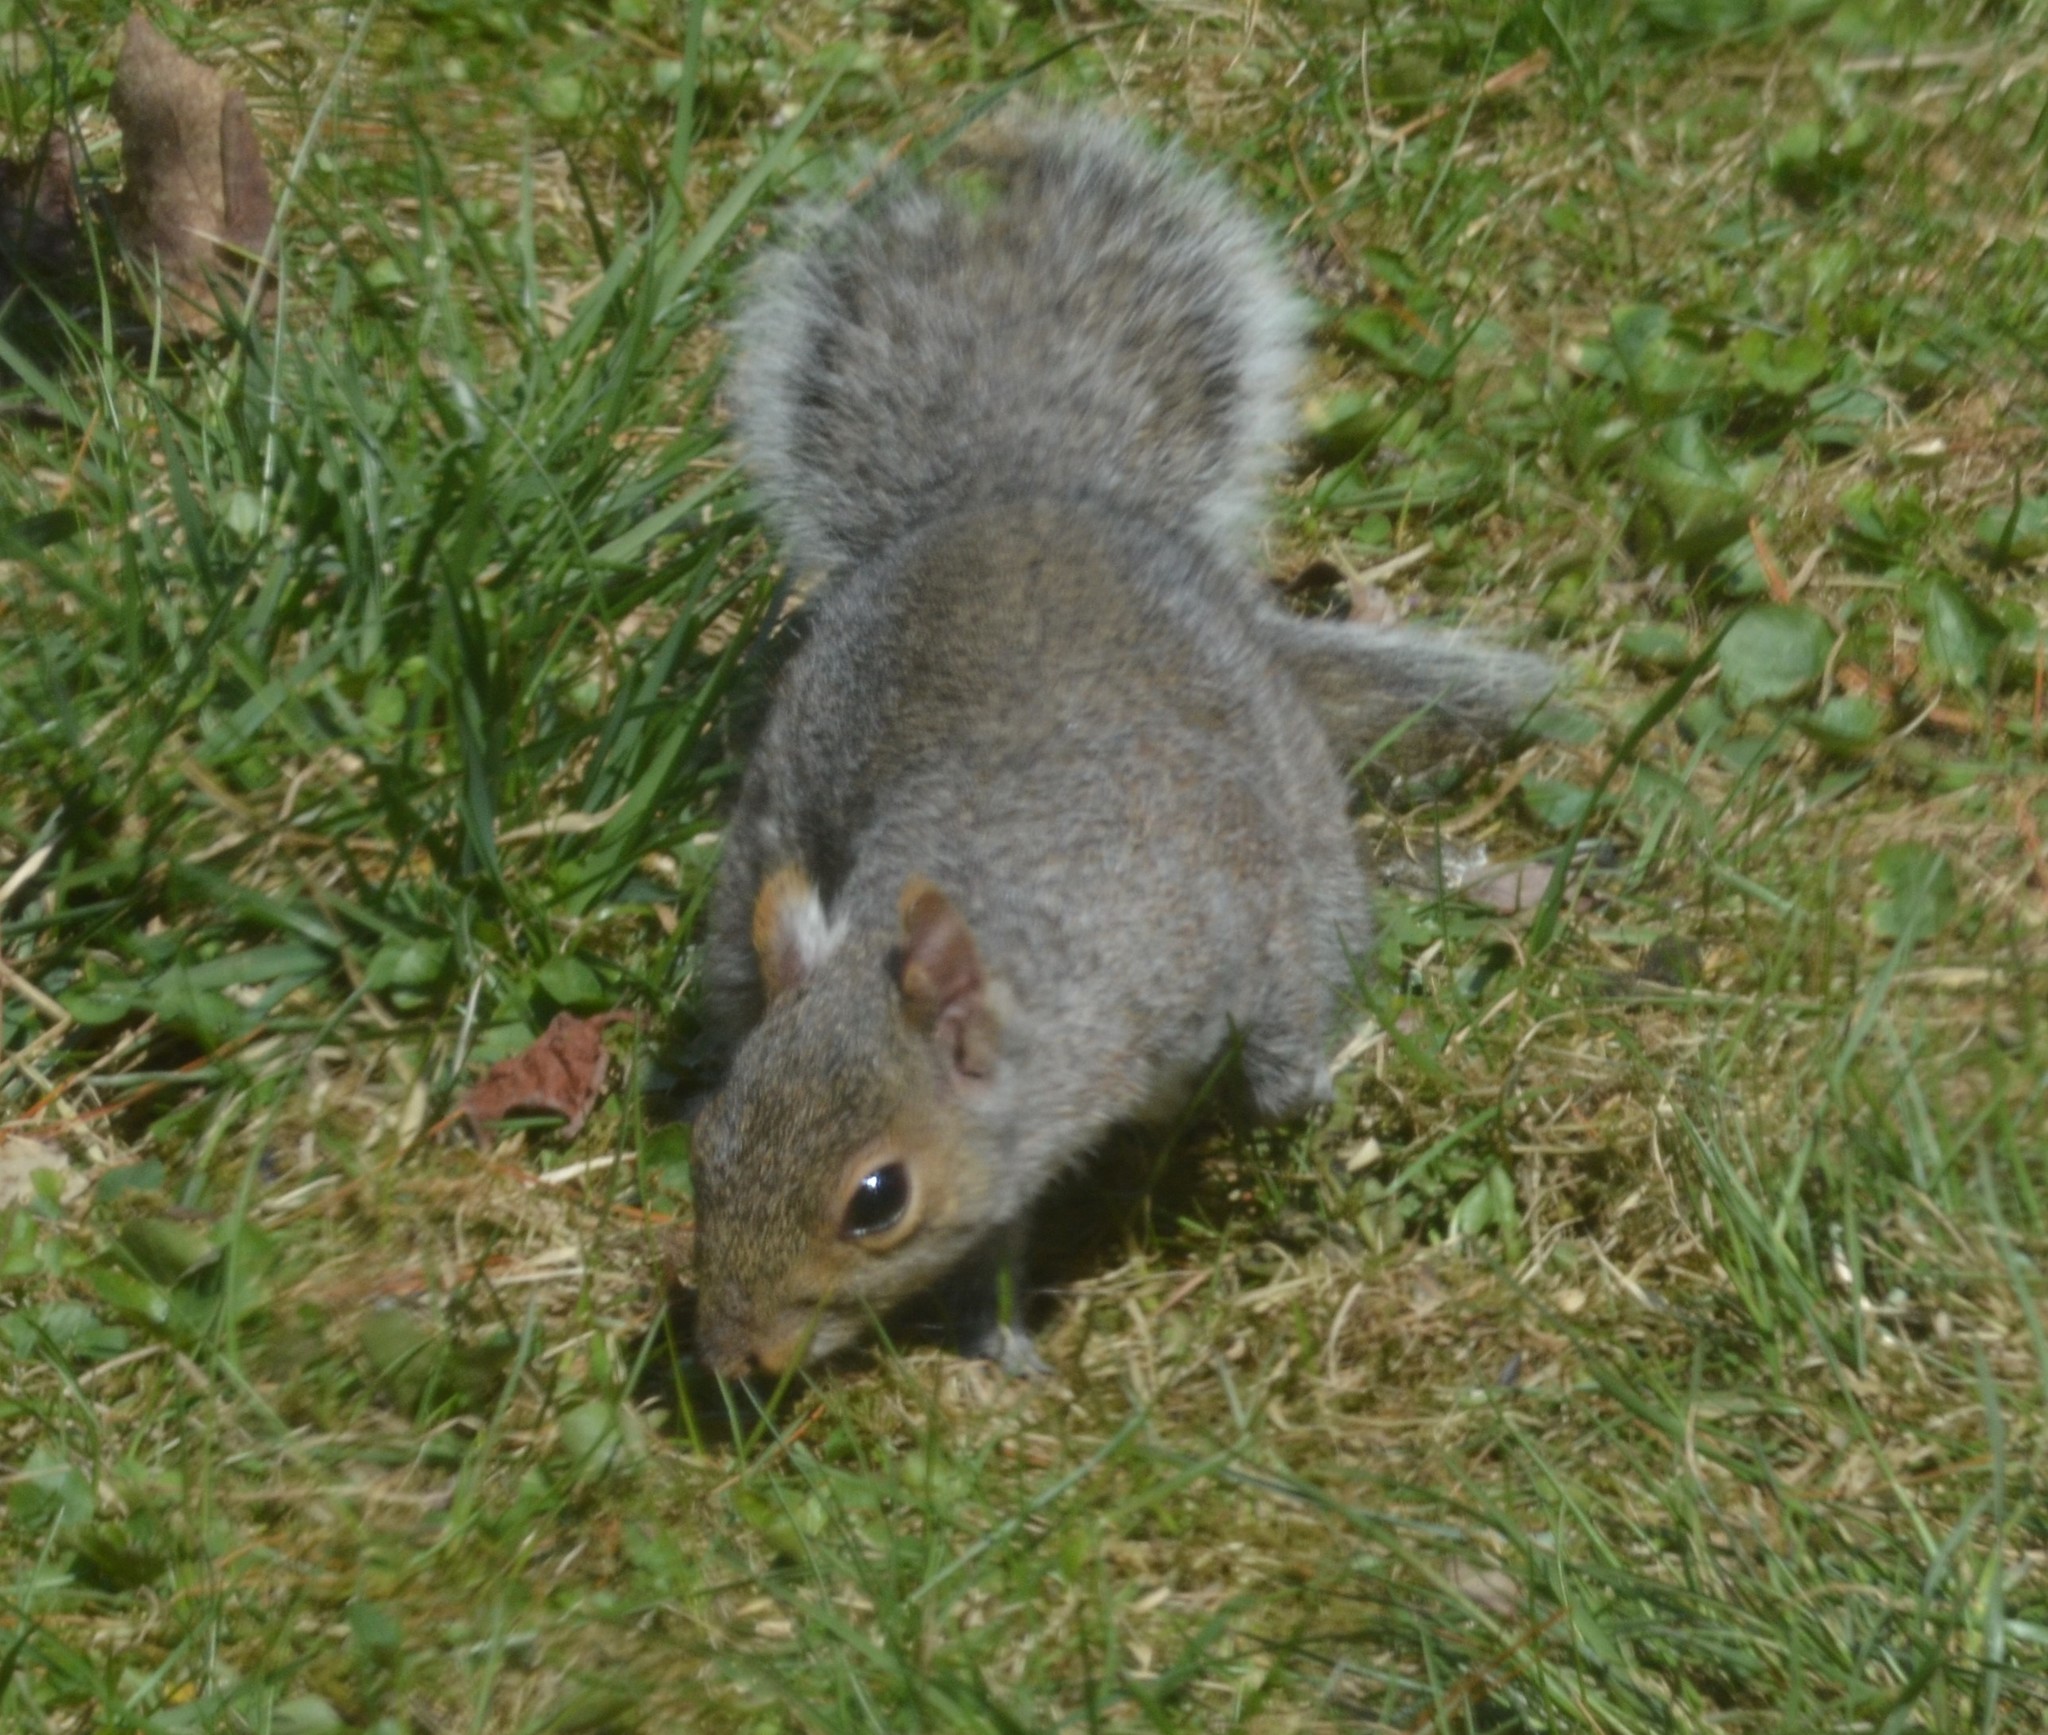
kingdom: Animalia
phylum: Chordata
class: Mammalia
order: Rodentia
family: Sciuridae
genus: Sciurus
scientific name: Sciurus carolinensis
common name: Eastern gray squirrel
